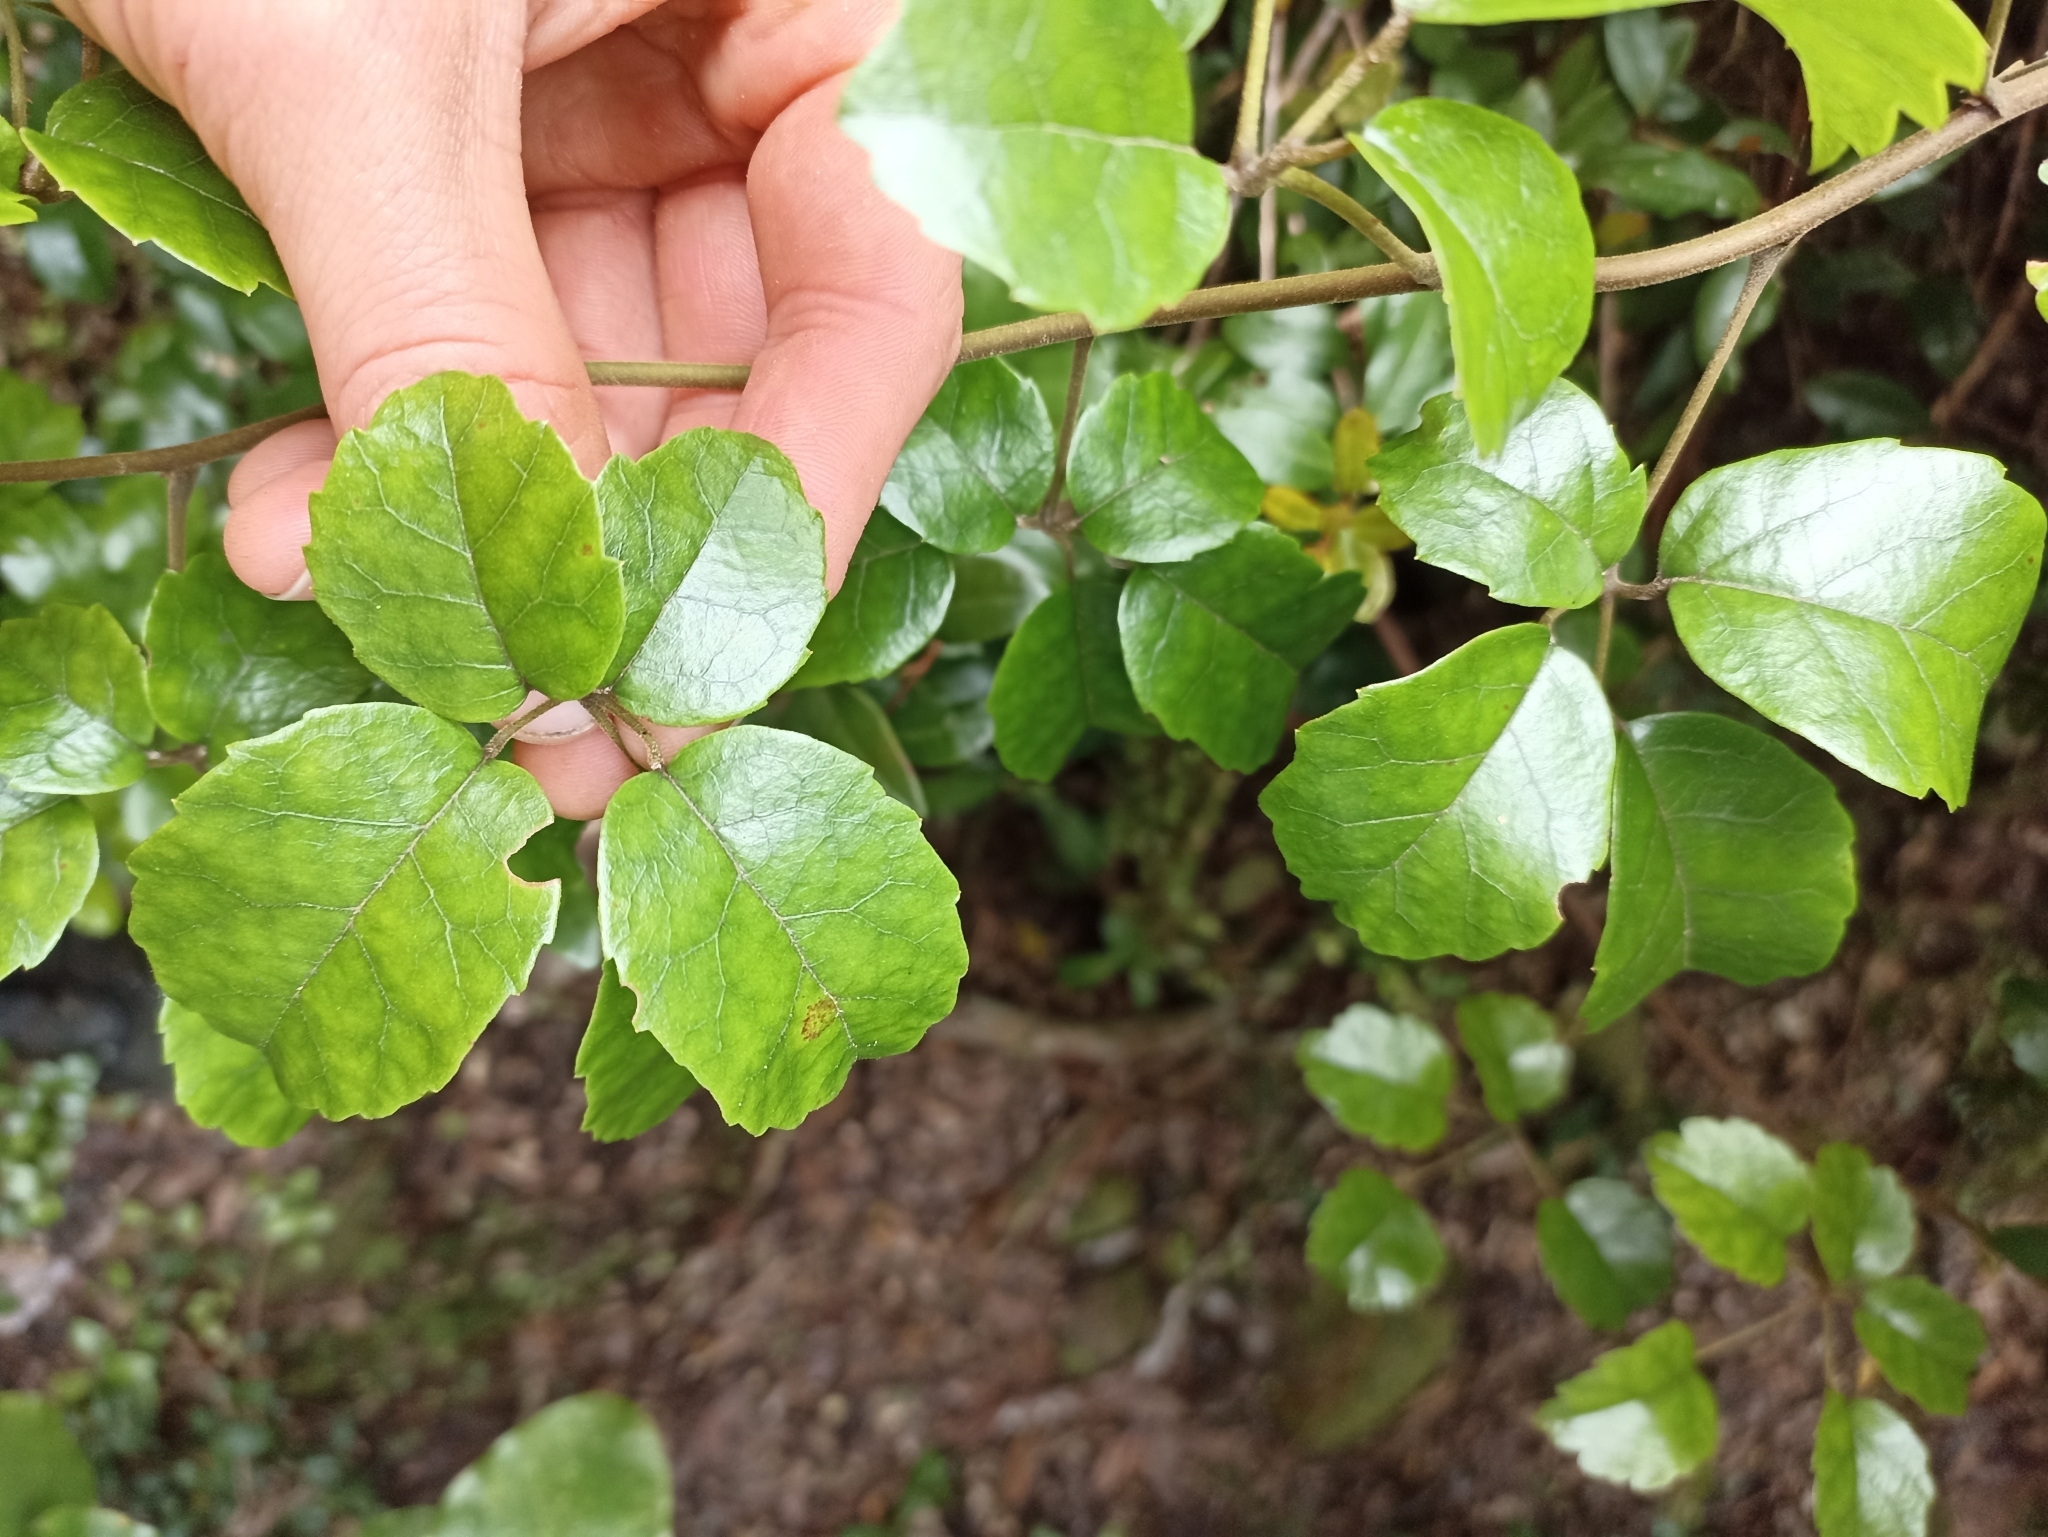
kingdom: Plantae
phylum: Tracheophyta
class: Magnoliopsida
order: Rosales
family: Rosaceae
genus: Rubus
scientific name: Rubus australis
